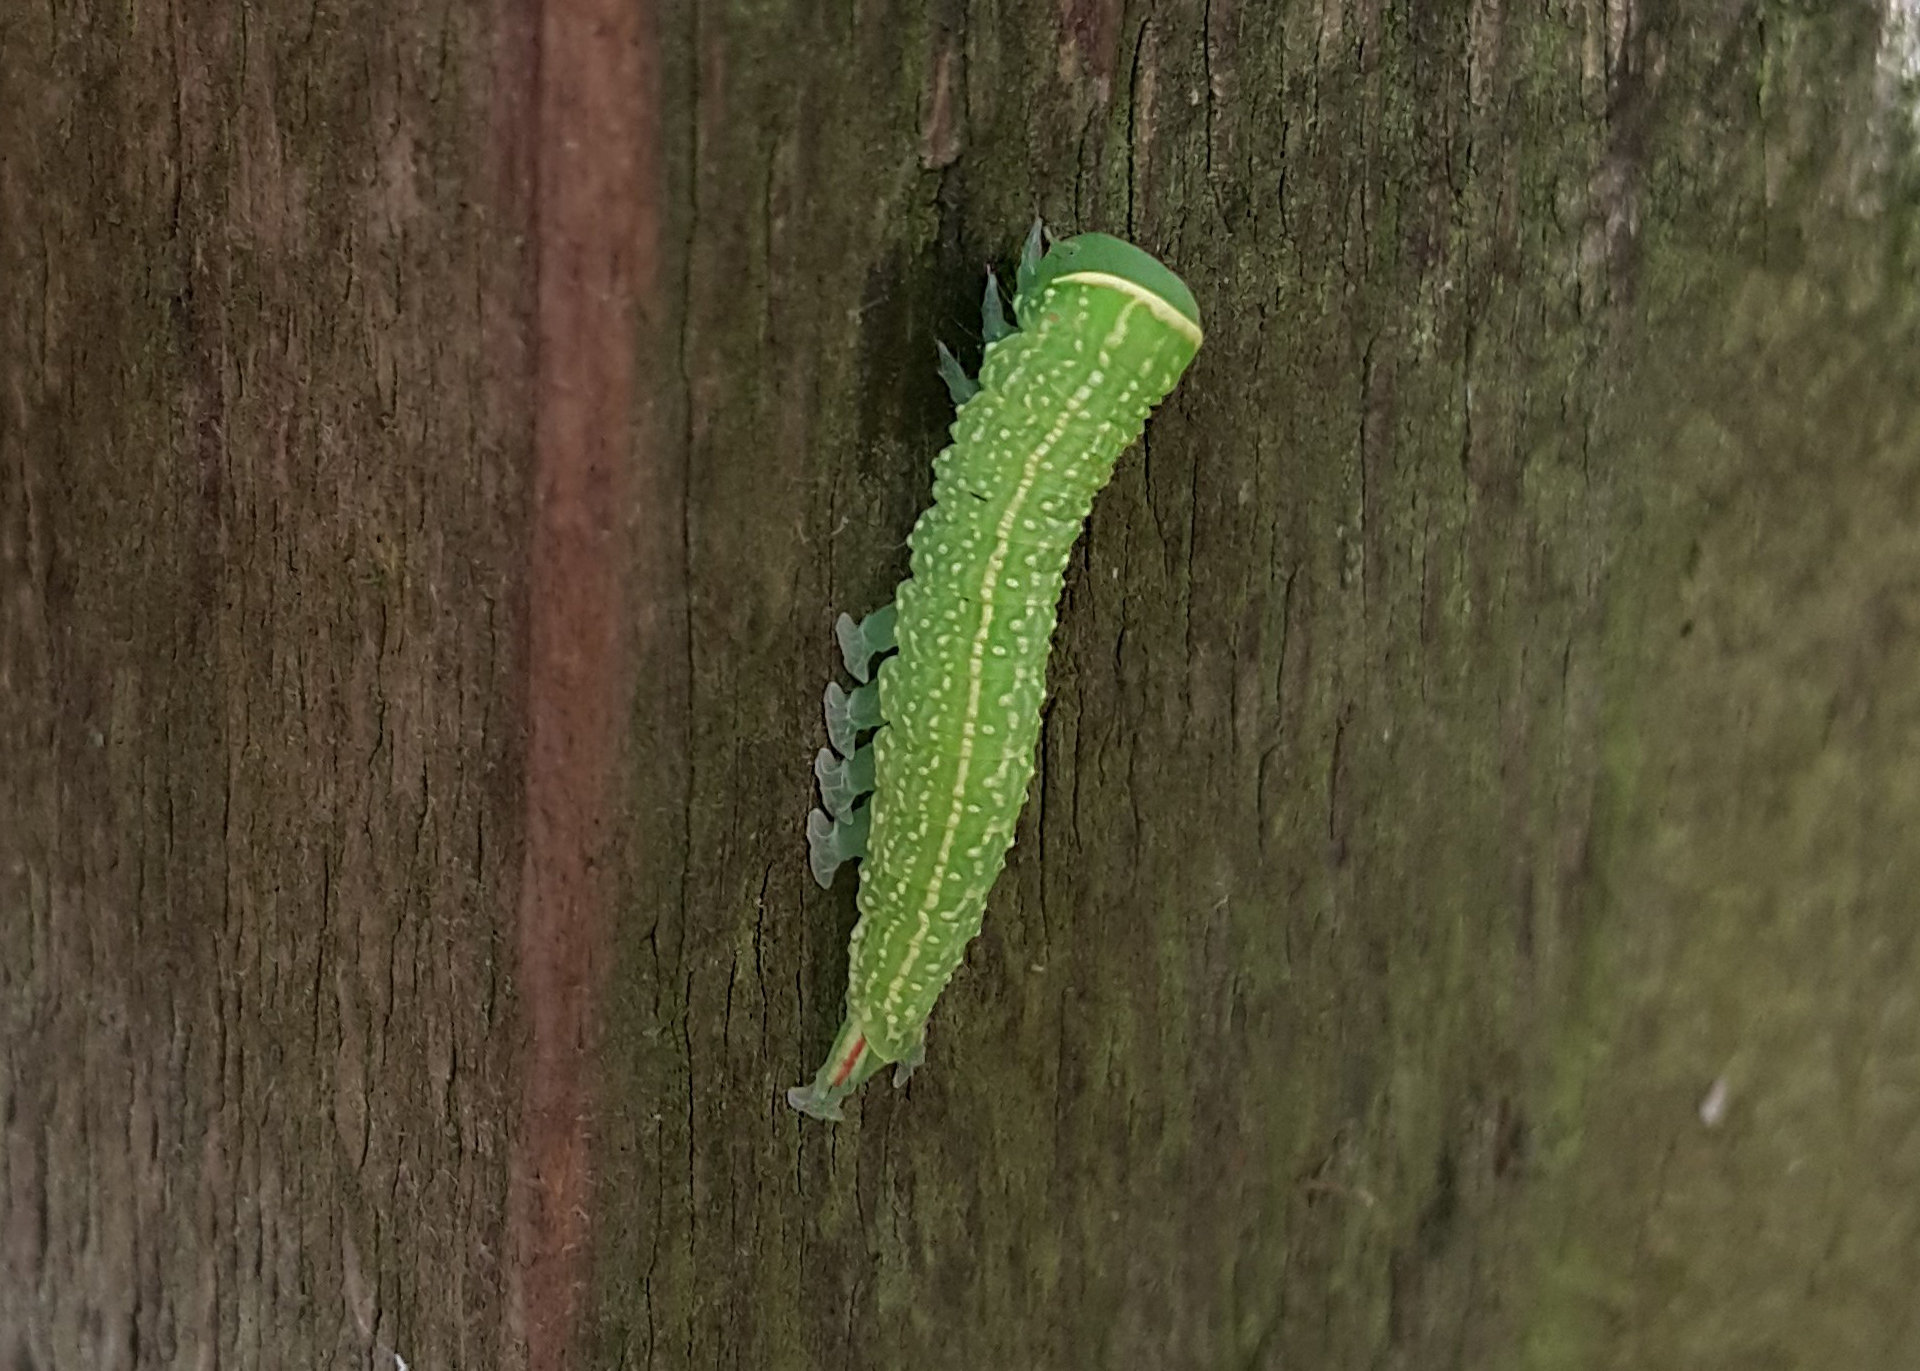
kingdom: Animalia
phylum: Arthropoda
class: Insecta
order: Lepidoptera
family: Nolidae
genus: Pseudoips
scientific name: Pseudoips prasinana
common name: Green silver-lines
